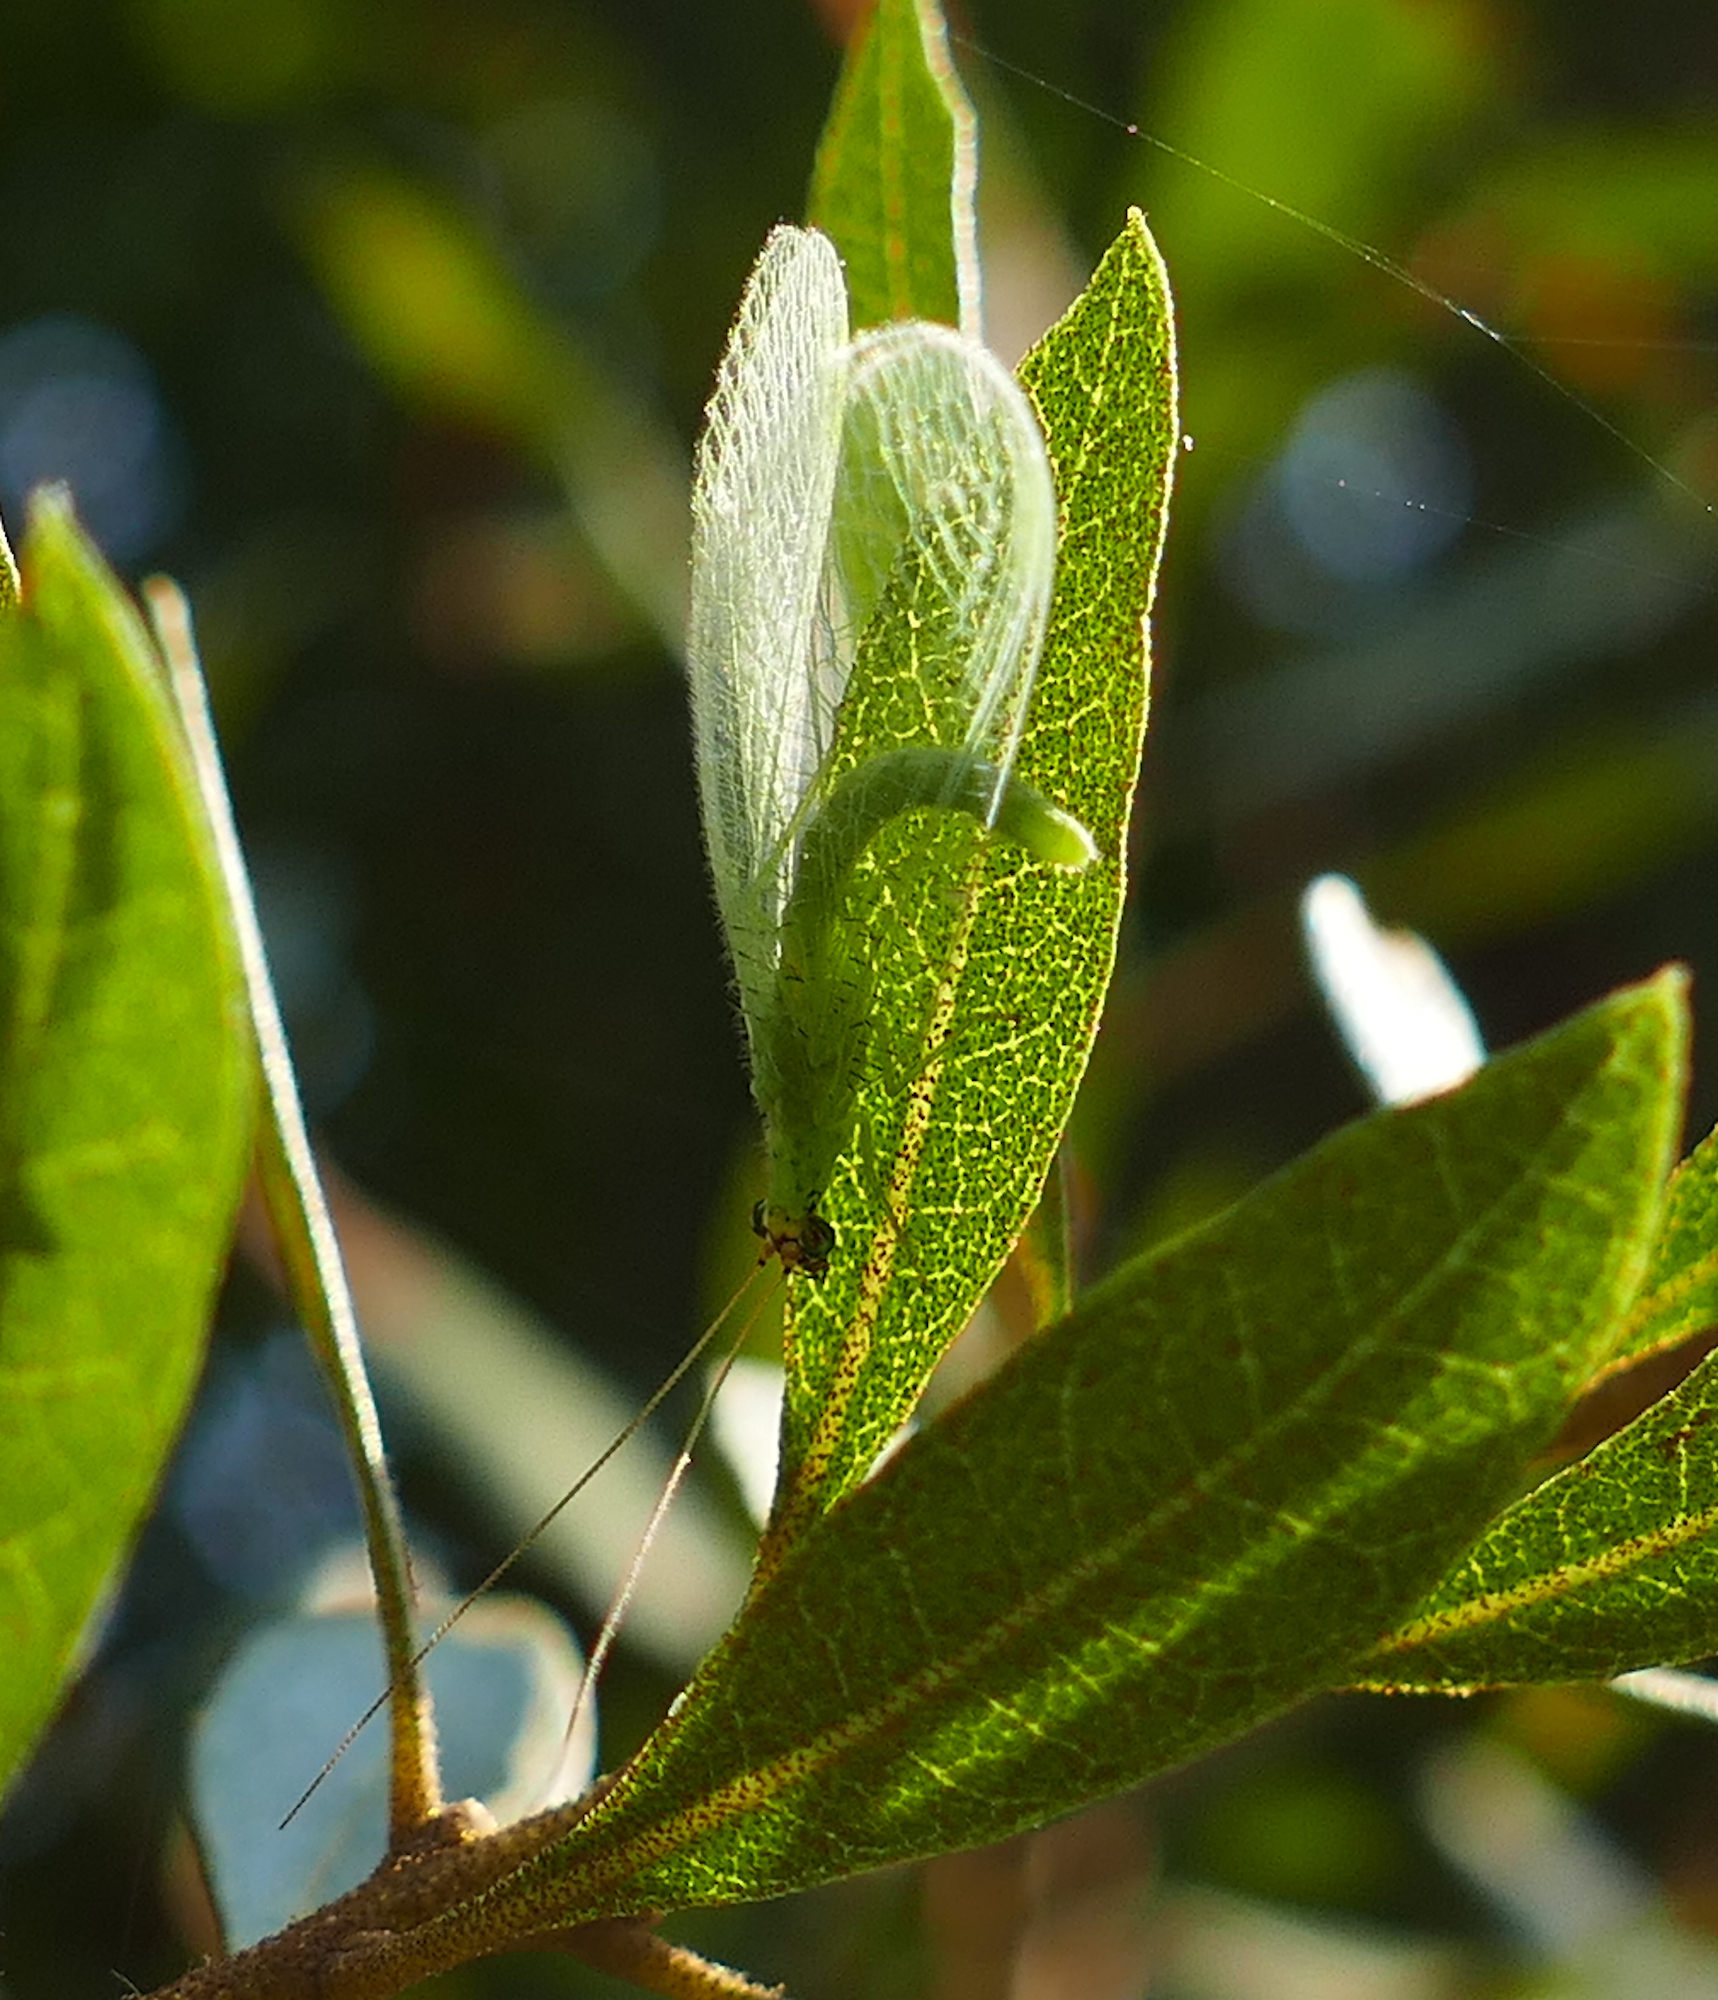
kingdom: Animalia
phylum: Arthropoda
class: Insecta
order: Neuroptera
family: Chrysopidae
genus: Chrysopa
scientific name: Chrysopa oculata
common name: Golden-eyed lacewing
